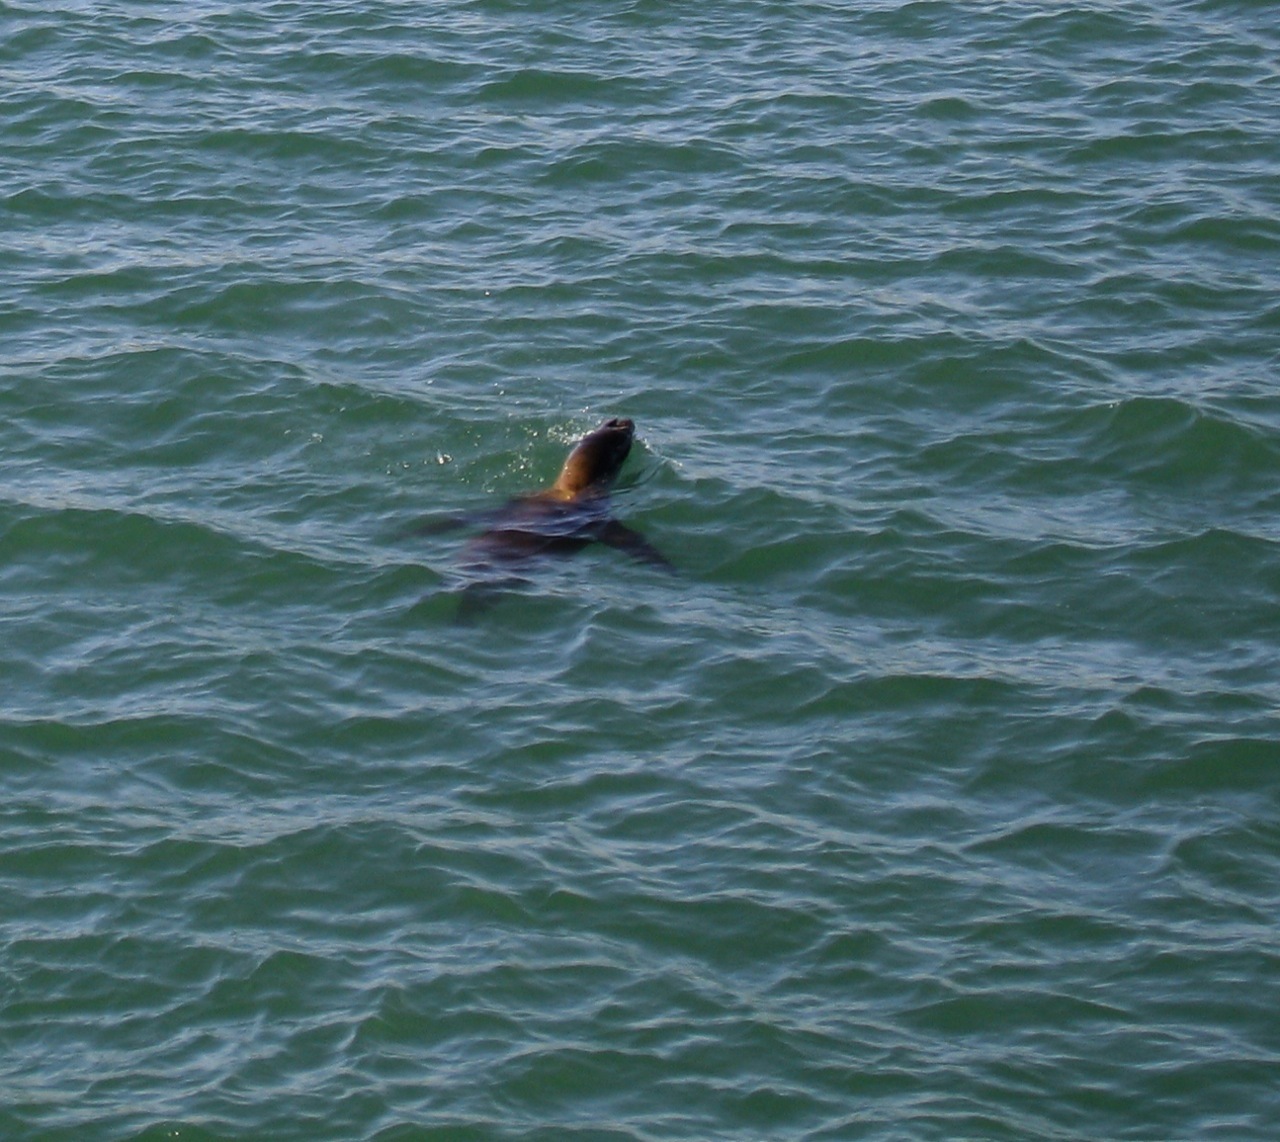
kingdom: Animalia
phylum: Chordata
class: Mammalia
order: Carnivora
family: Otariidae
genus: Zalophus
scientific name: Zalophus californianus
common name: California sea lion
